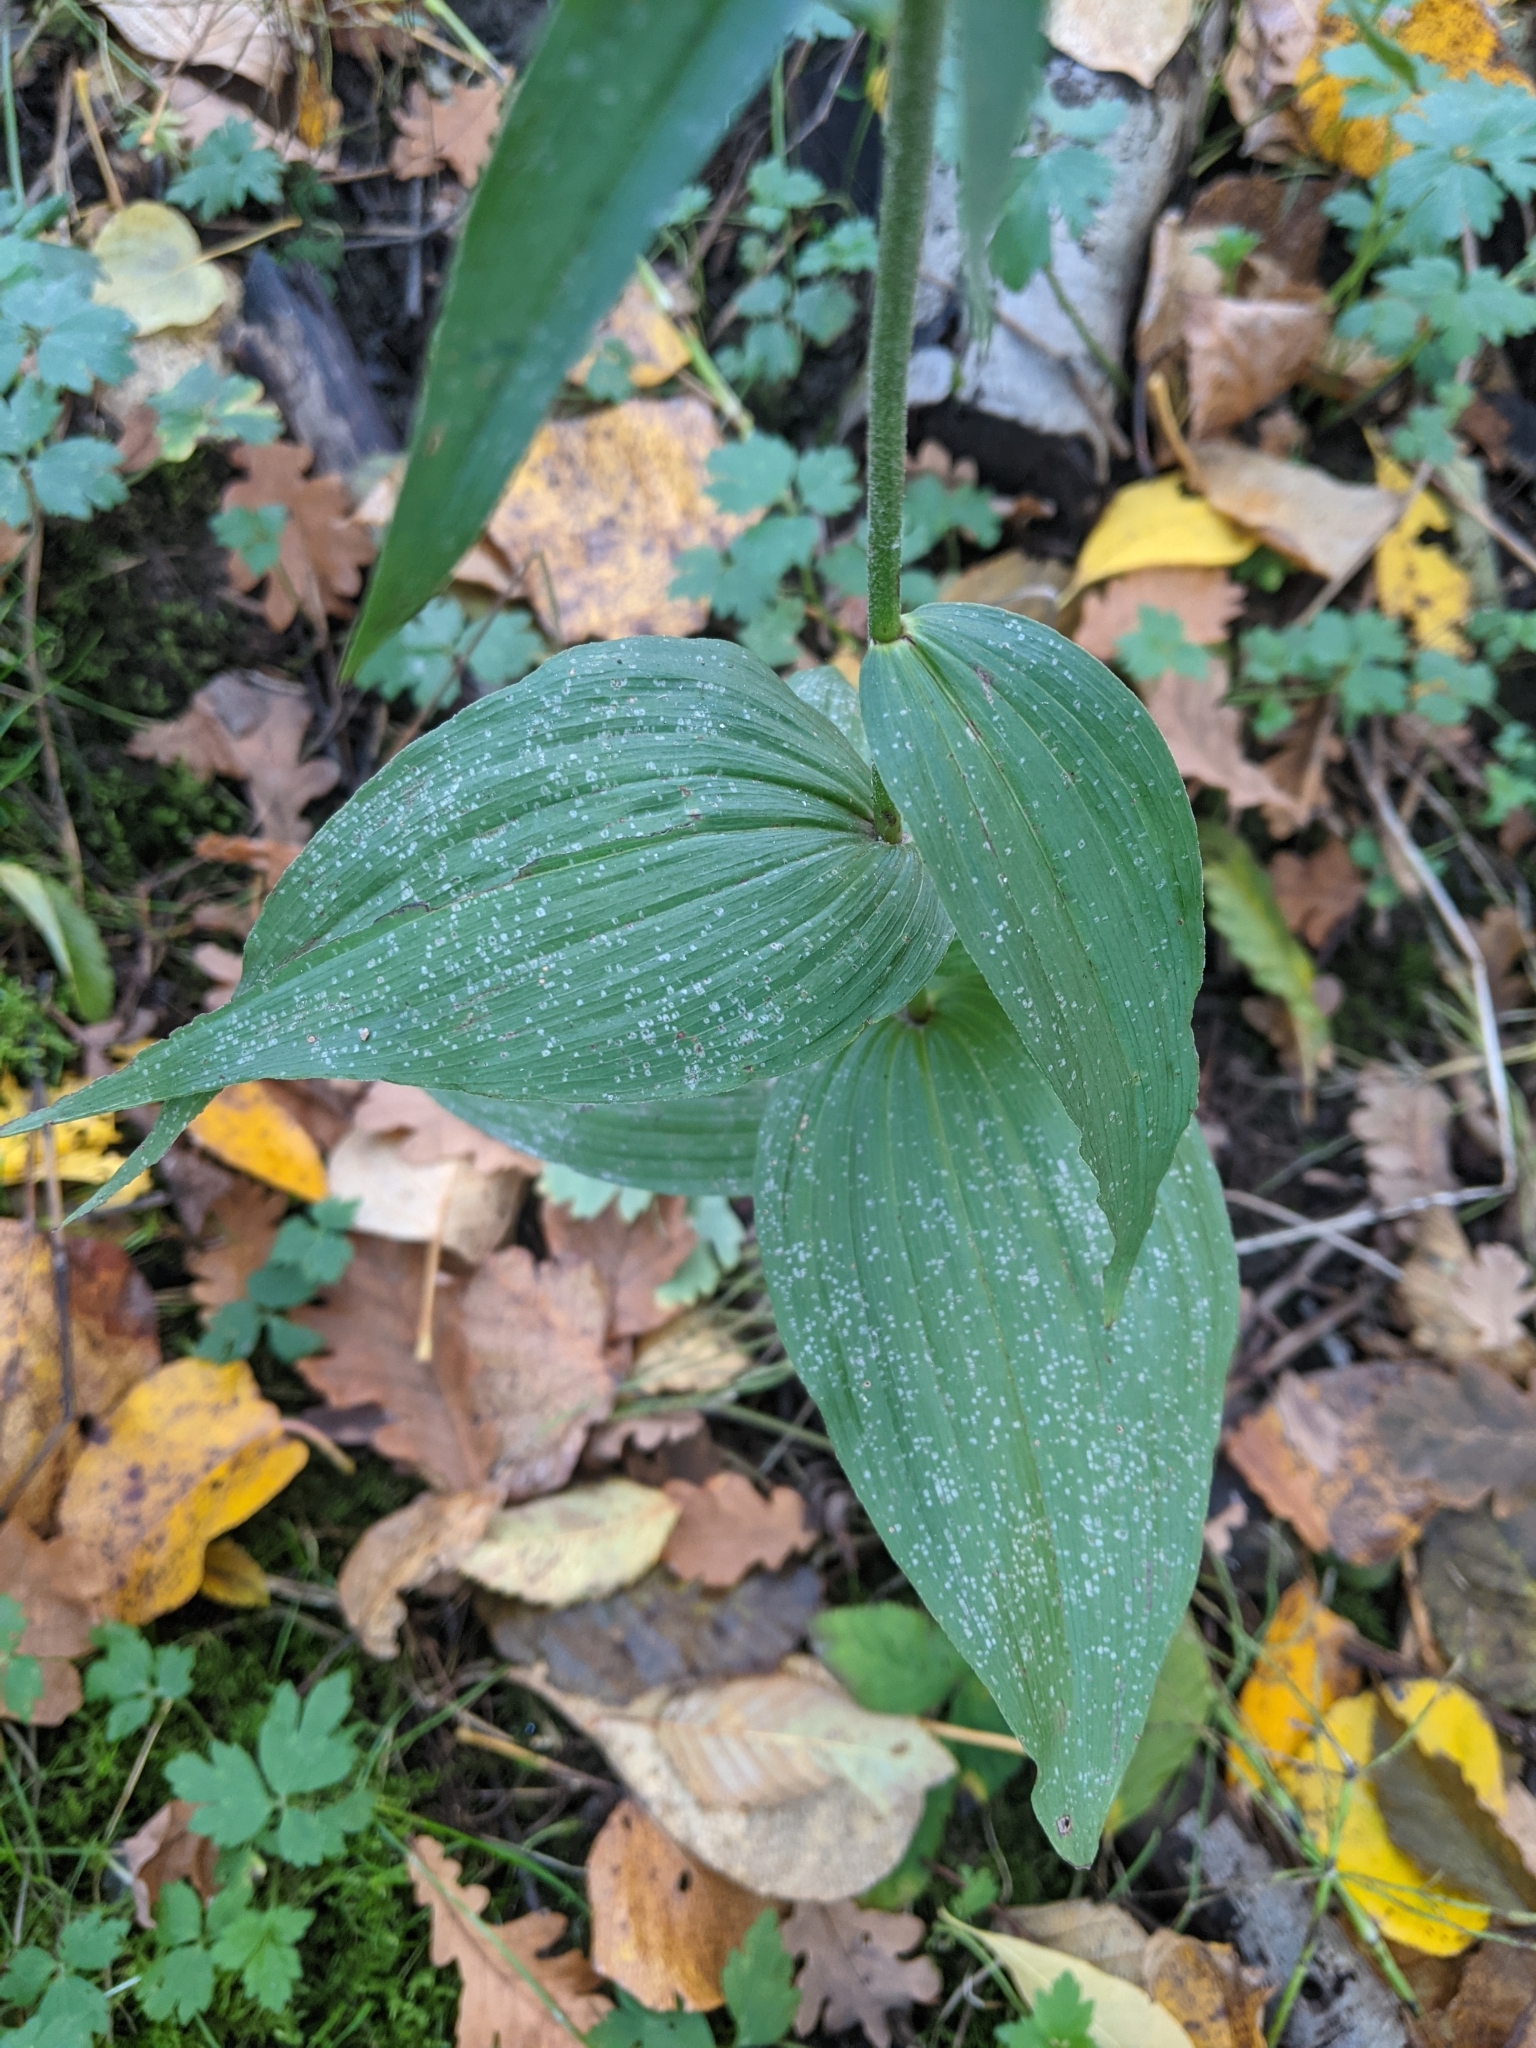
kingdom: Plantae
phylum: Tracheophyta
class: Liliopsida
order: Asparagales
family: Orchidaceae
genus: Epipactis
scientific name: Epipactis helleborine
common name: Broad-leaved helleborine
